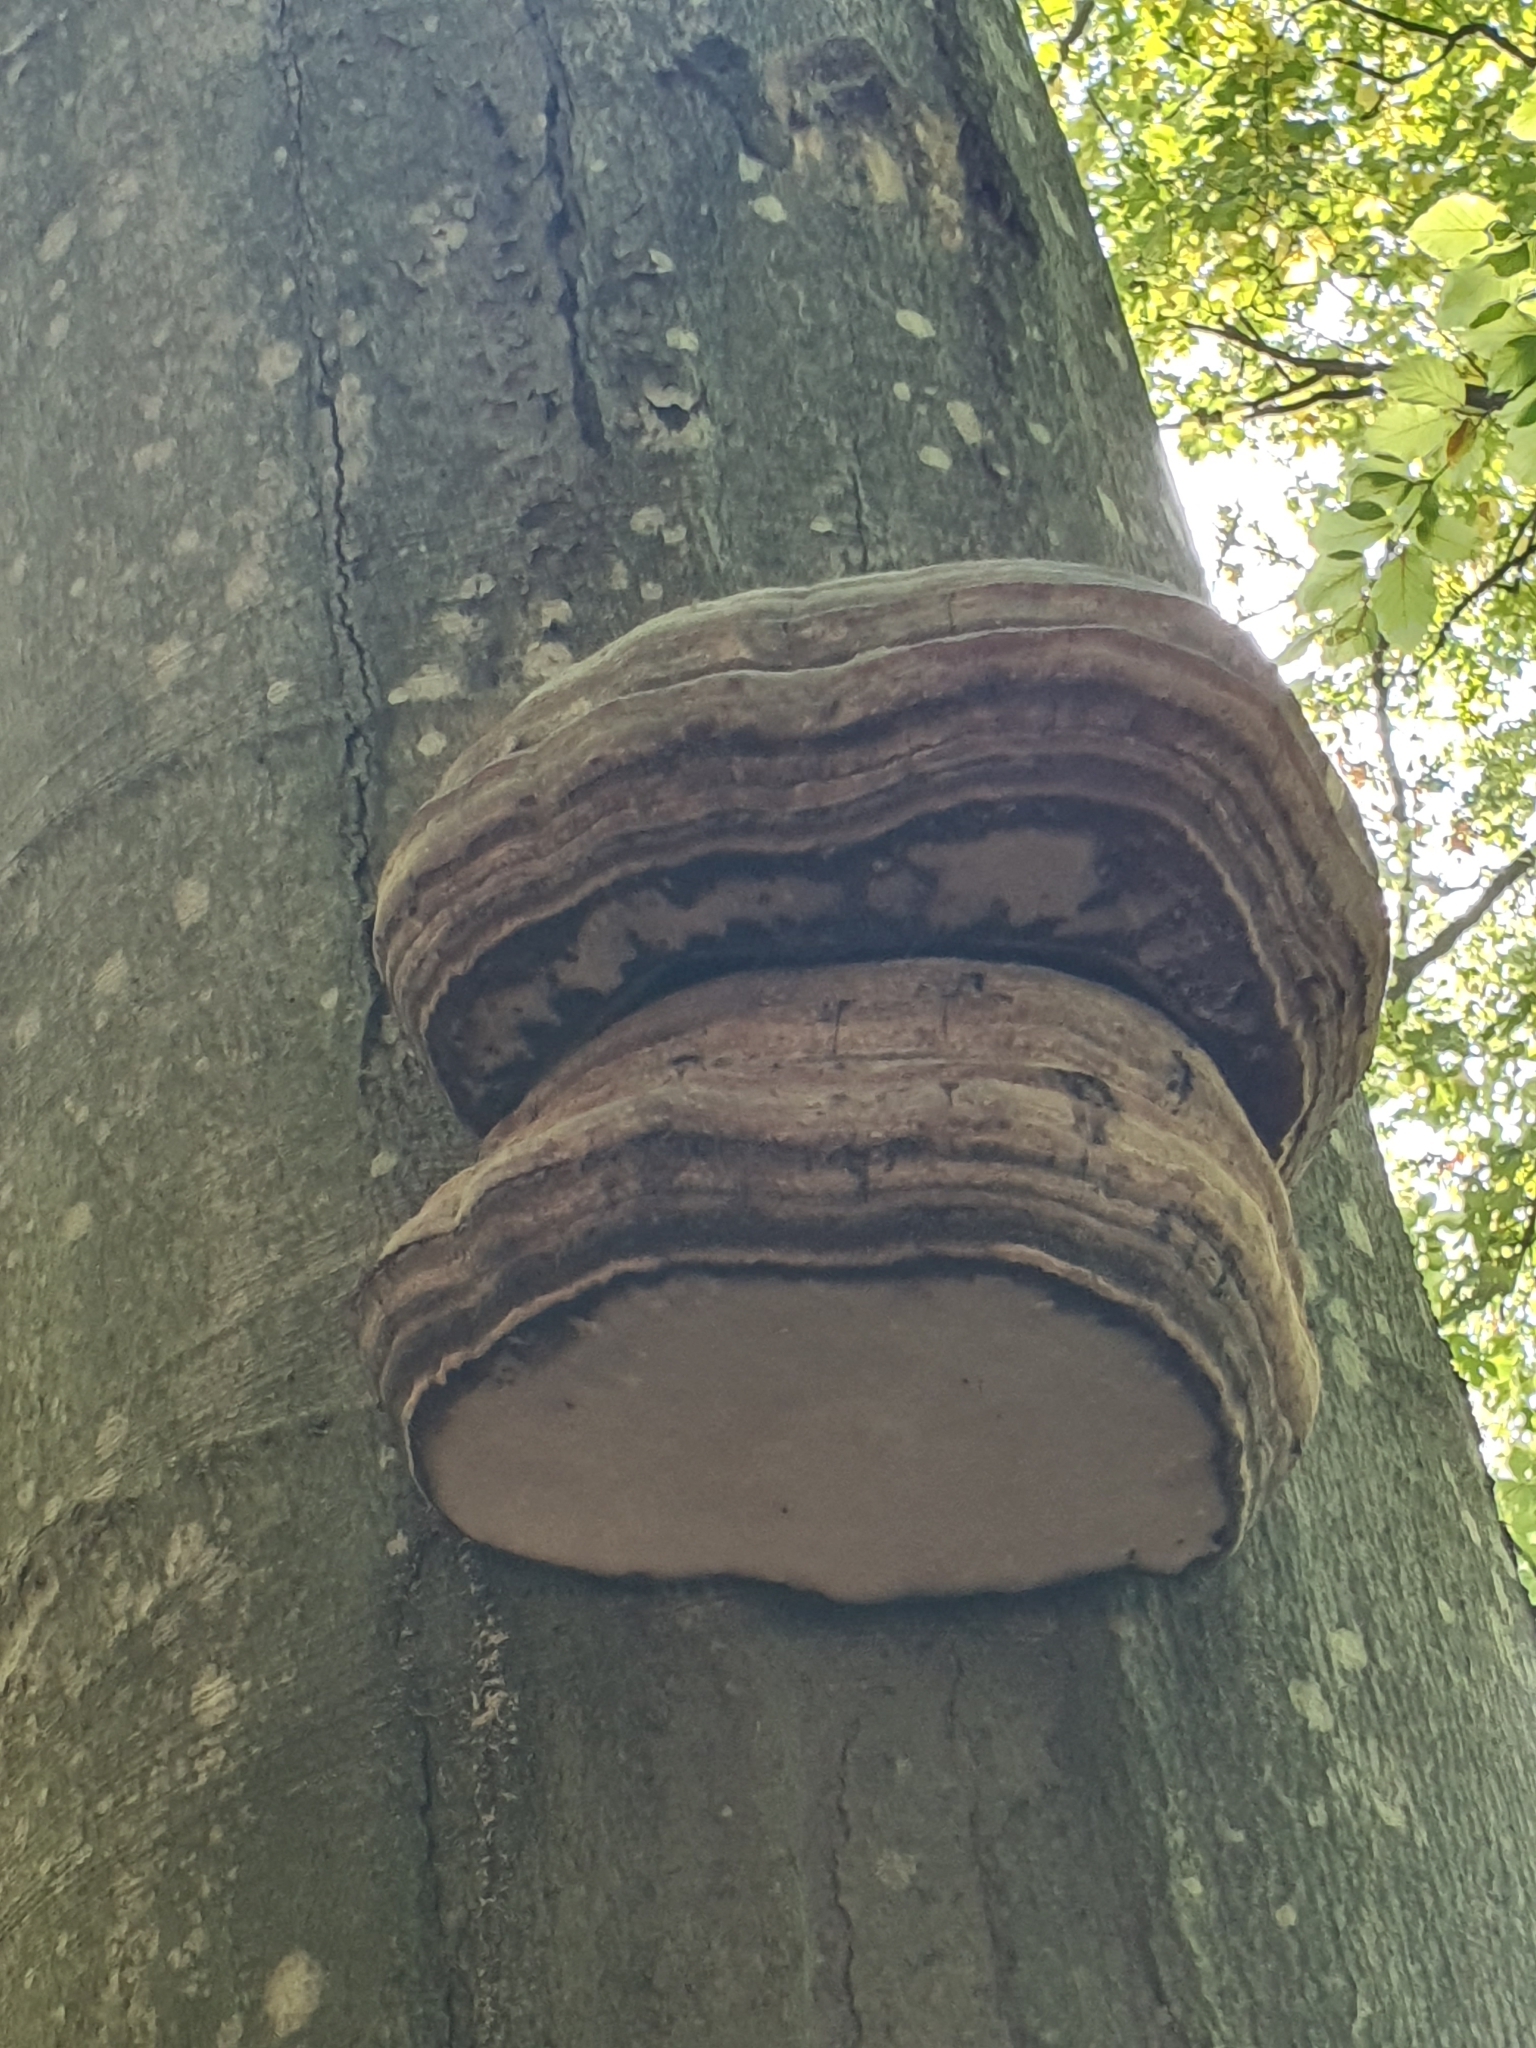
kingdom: Fungi
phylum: Basidiomycota
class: Agaricomycetes
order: Polyporales
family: Polyporaceae
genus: Fomes
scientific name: Fomes fomentarius
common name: Hoof fungus
